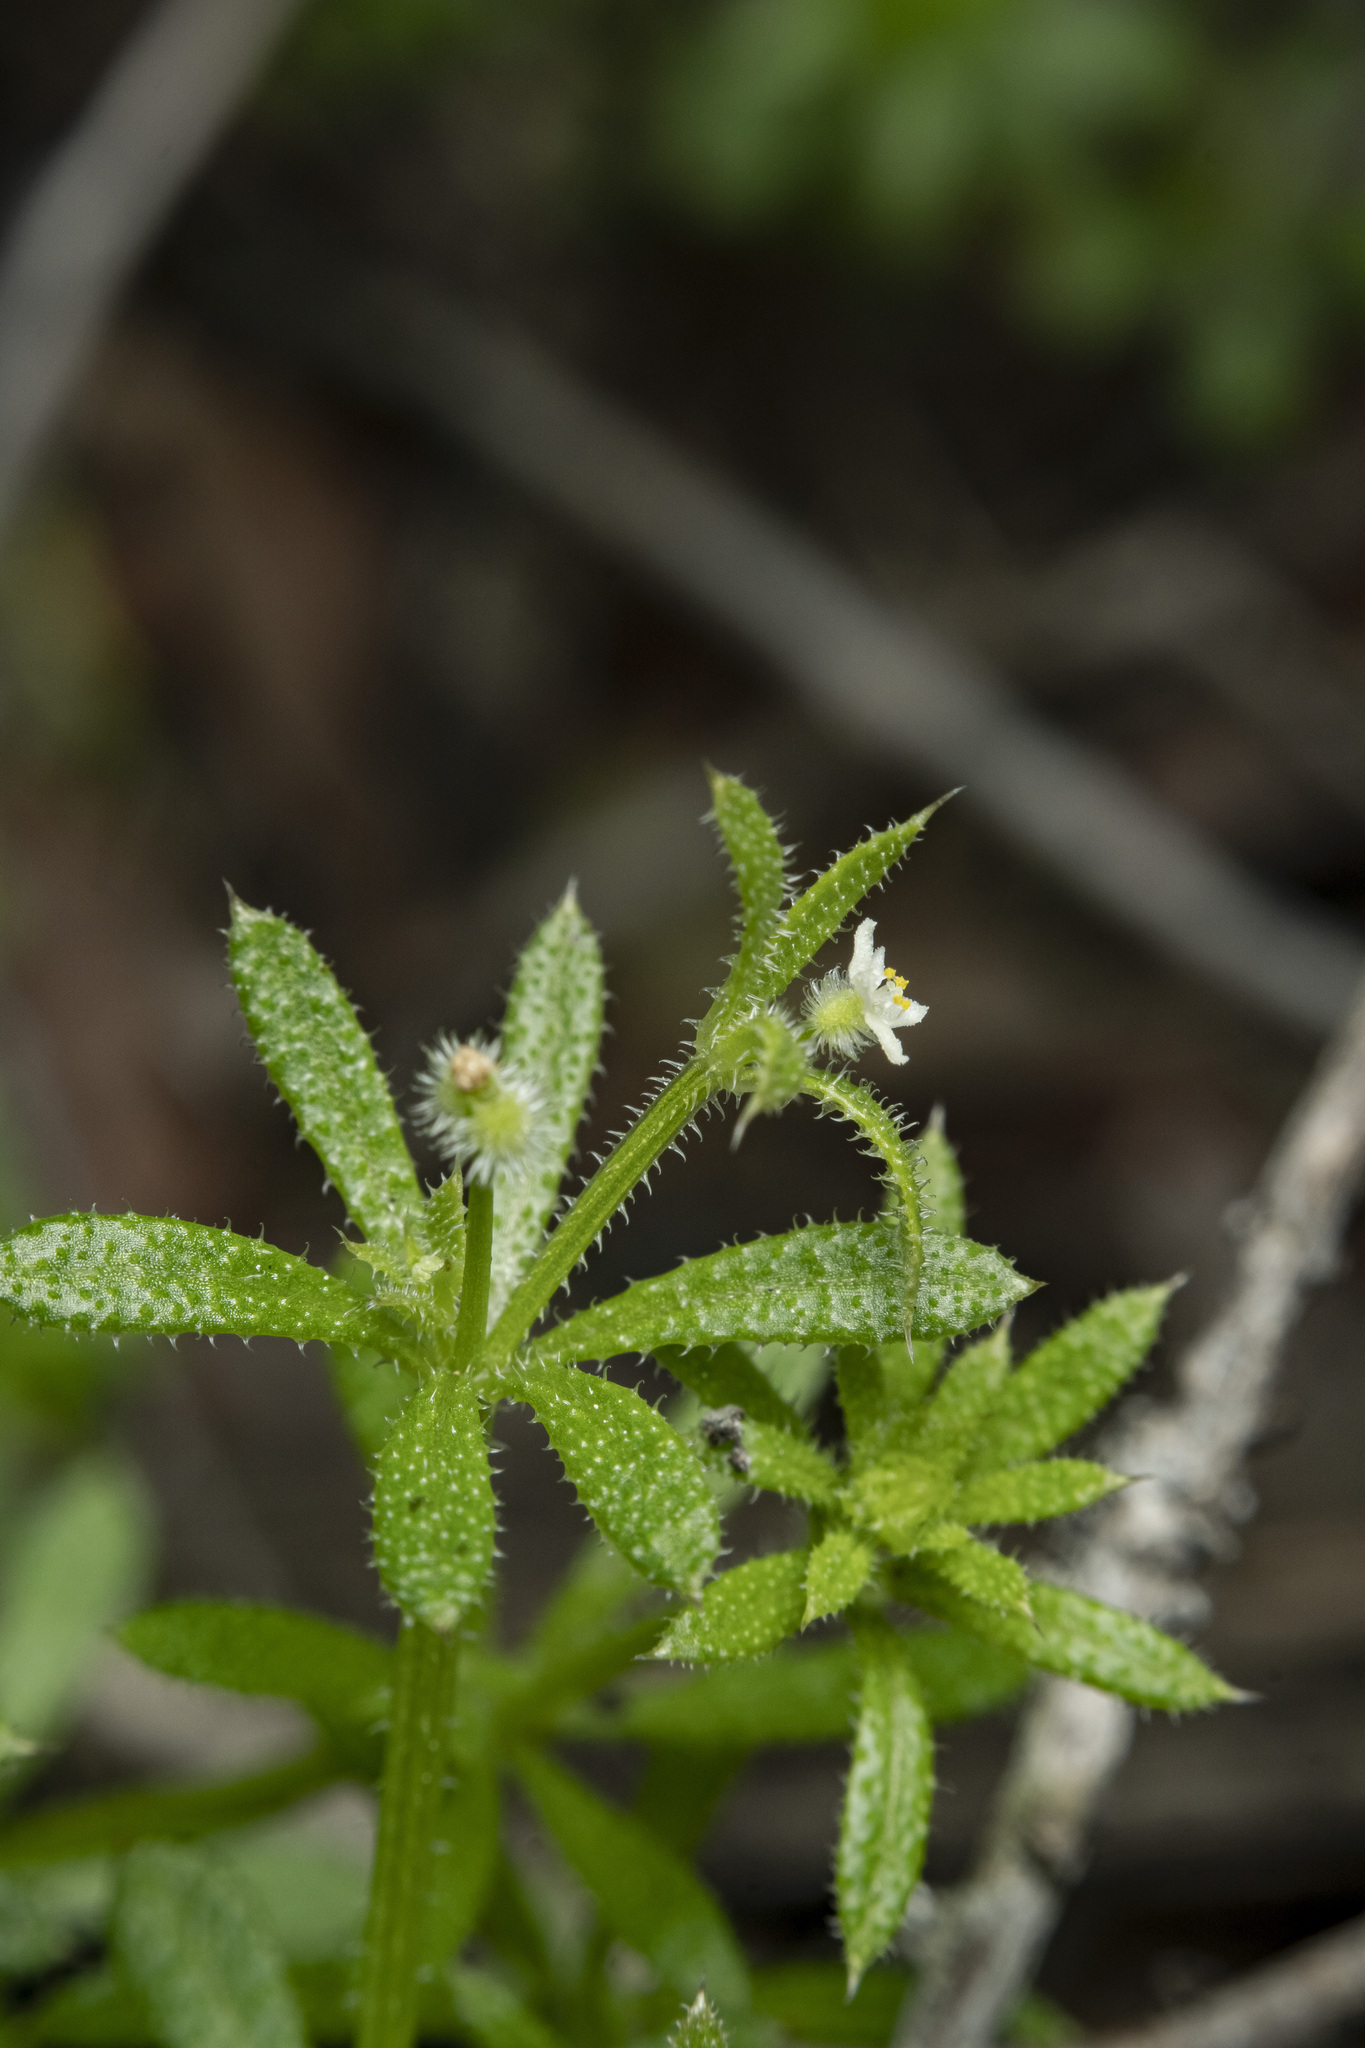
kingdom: Plantae
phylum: Tracheophyta
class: Magnoliopsida
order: Gentianales
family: Rubiaceae
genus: Galium
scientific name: Galium aparine
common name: Cleavers
